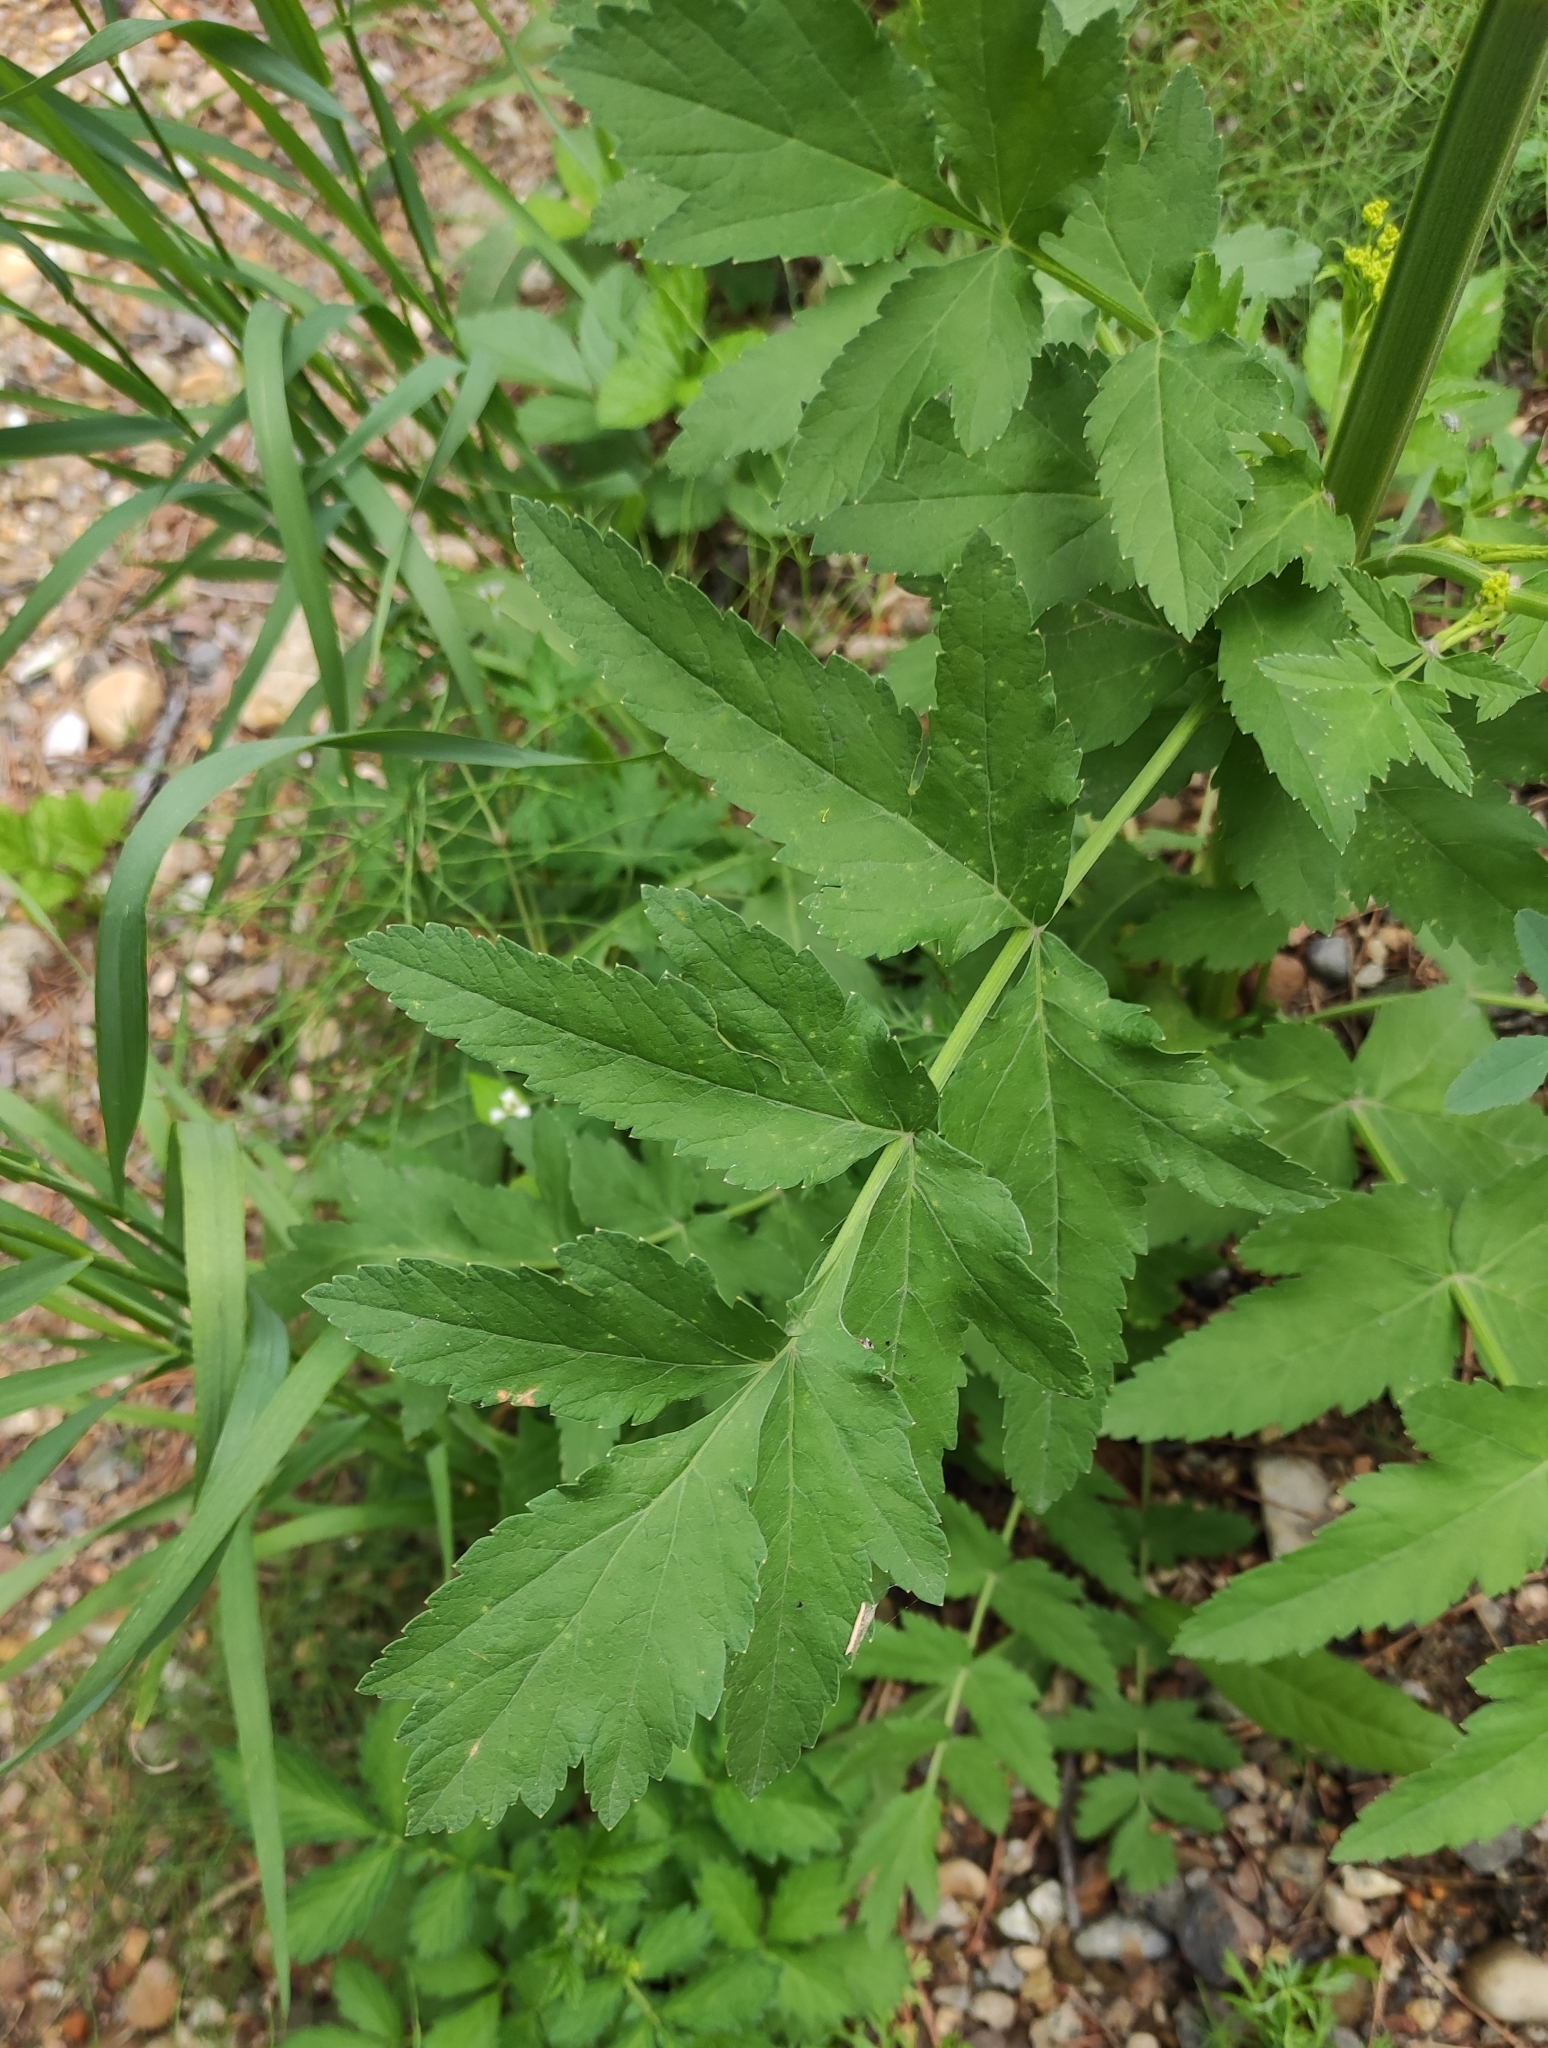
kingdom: Plantae
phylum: Tracheophyta
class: Magnoliopsida
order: Apiales
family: Apiaceae
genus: Pastinaca
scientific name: Pastinaca sativa
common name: Wild parsnip
